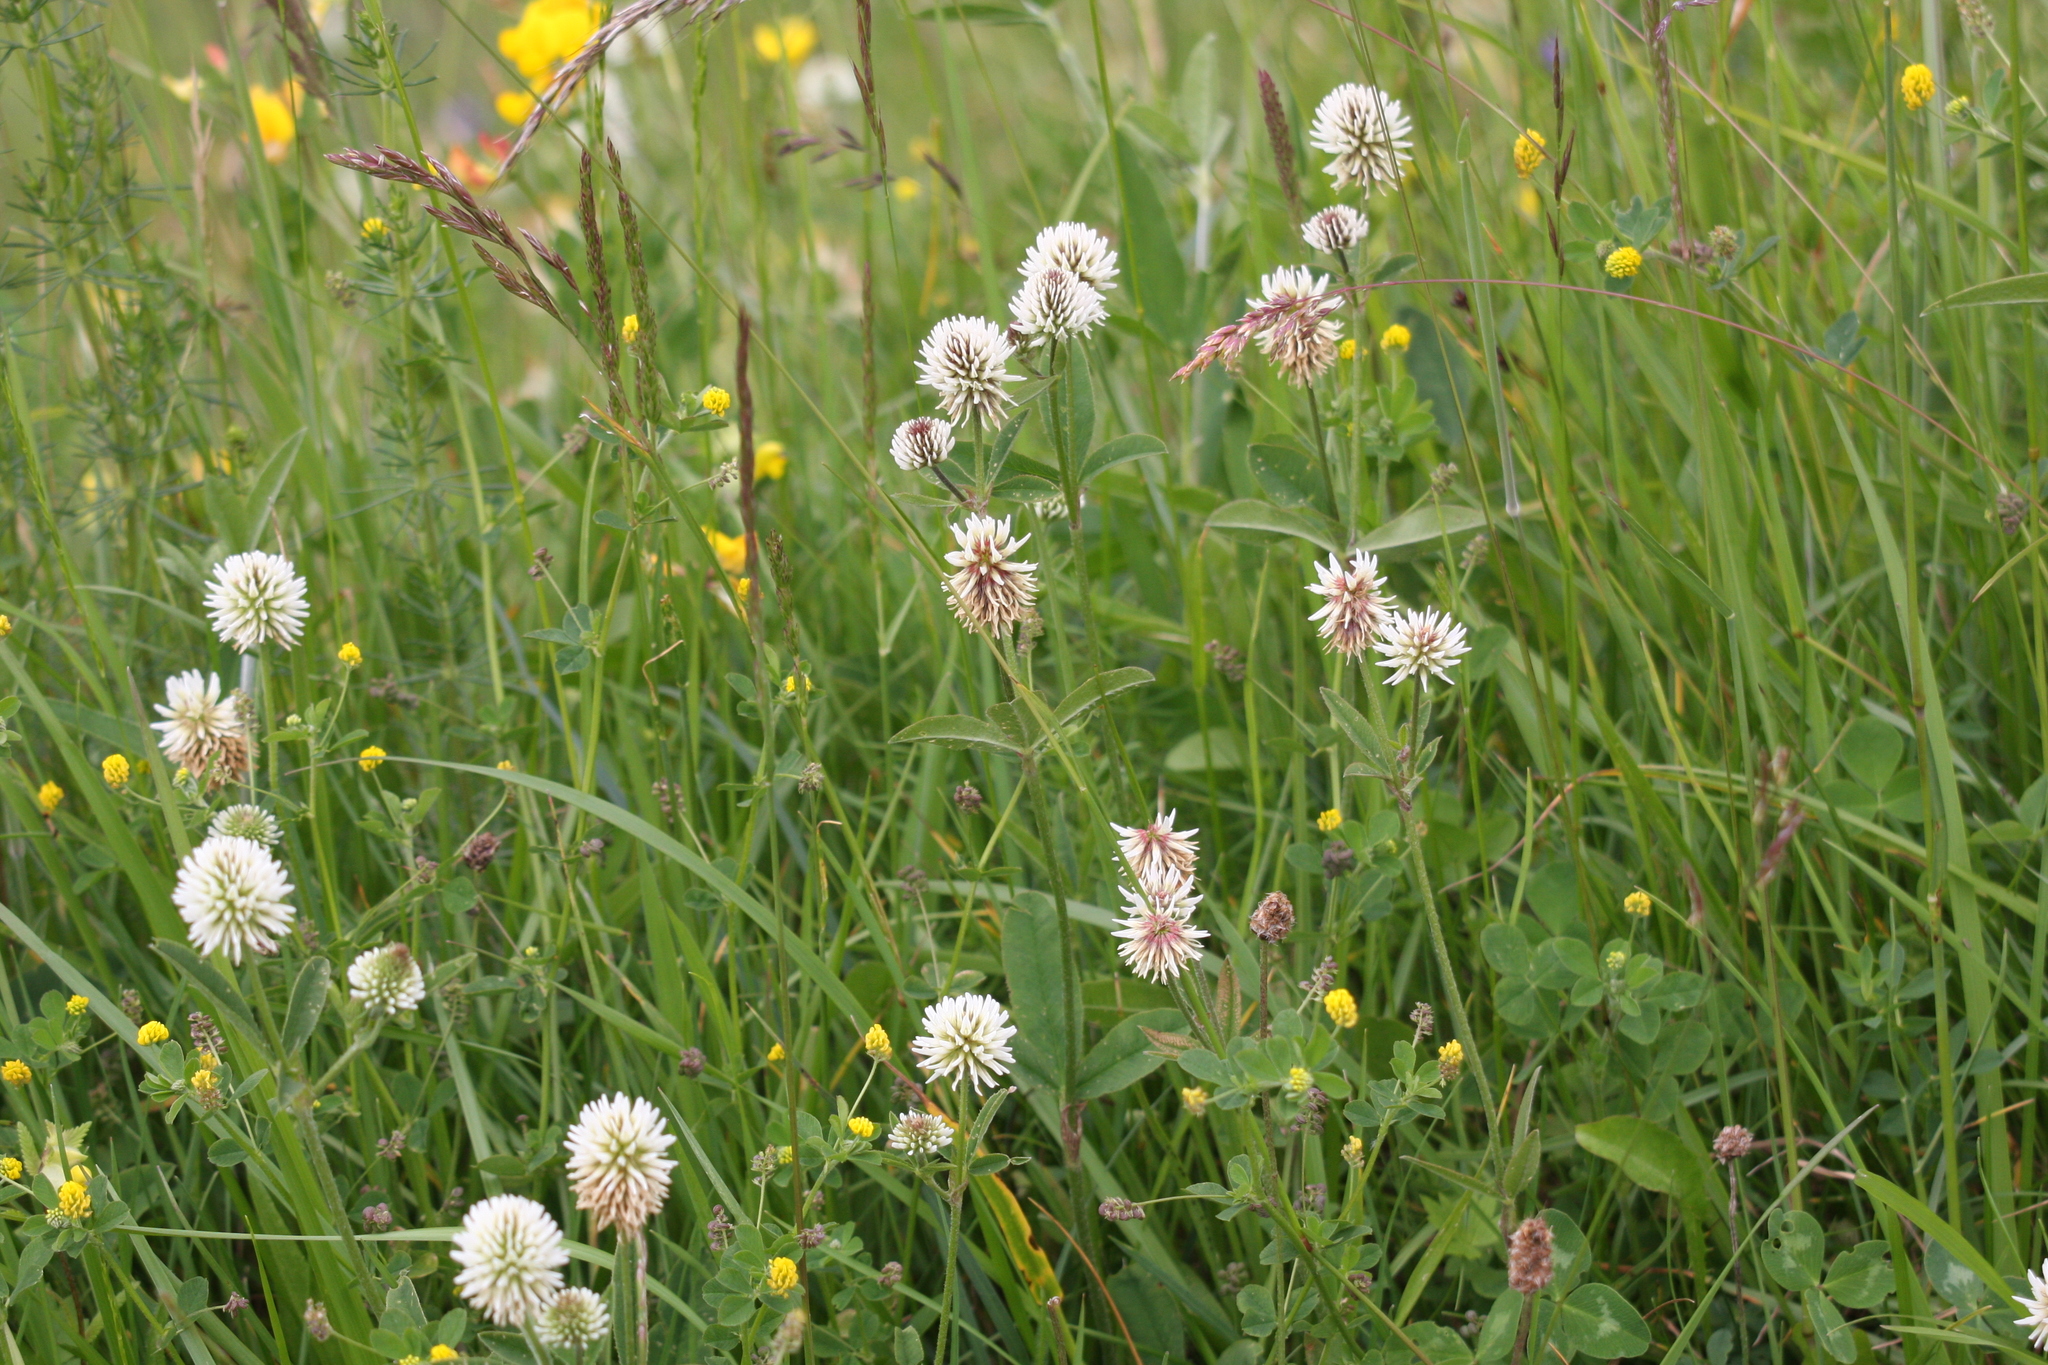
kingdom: Plantae
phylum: Tracheophyta
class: Magnoliopsida
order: Fabales
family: Fabaceae
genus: Trifolium
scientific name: Trifolium montanum
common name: Mountain clover
